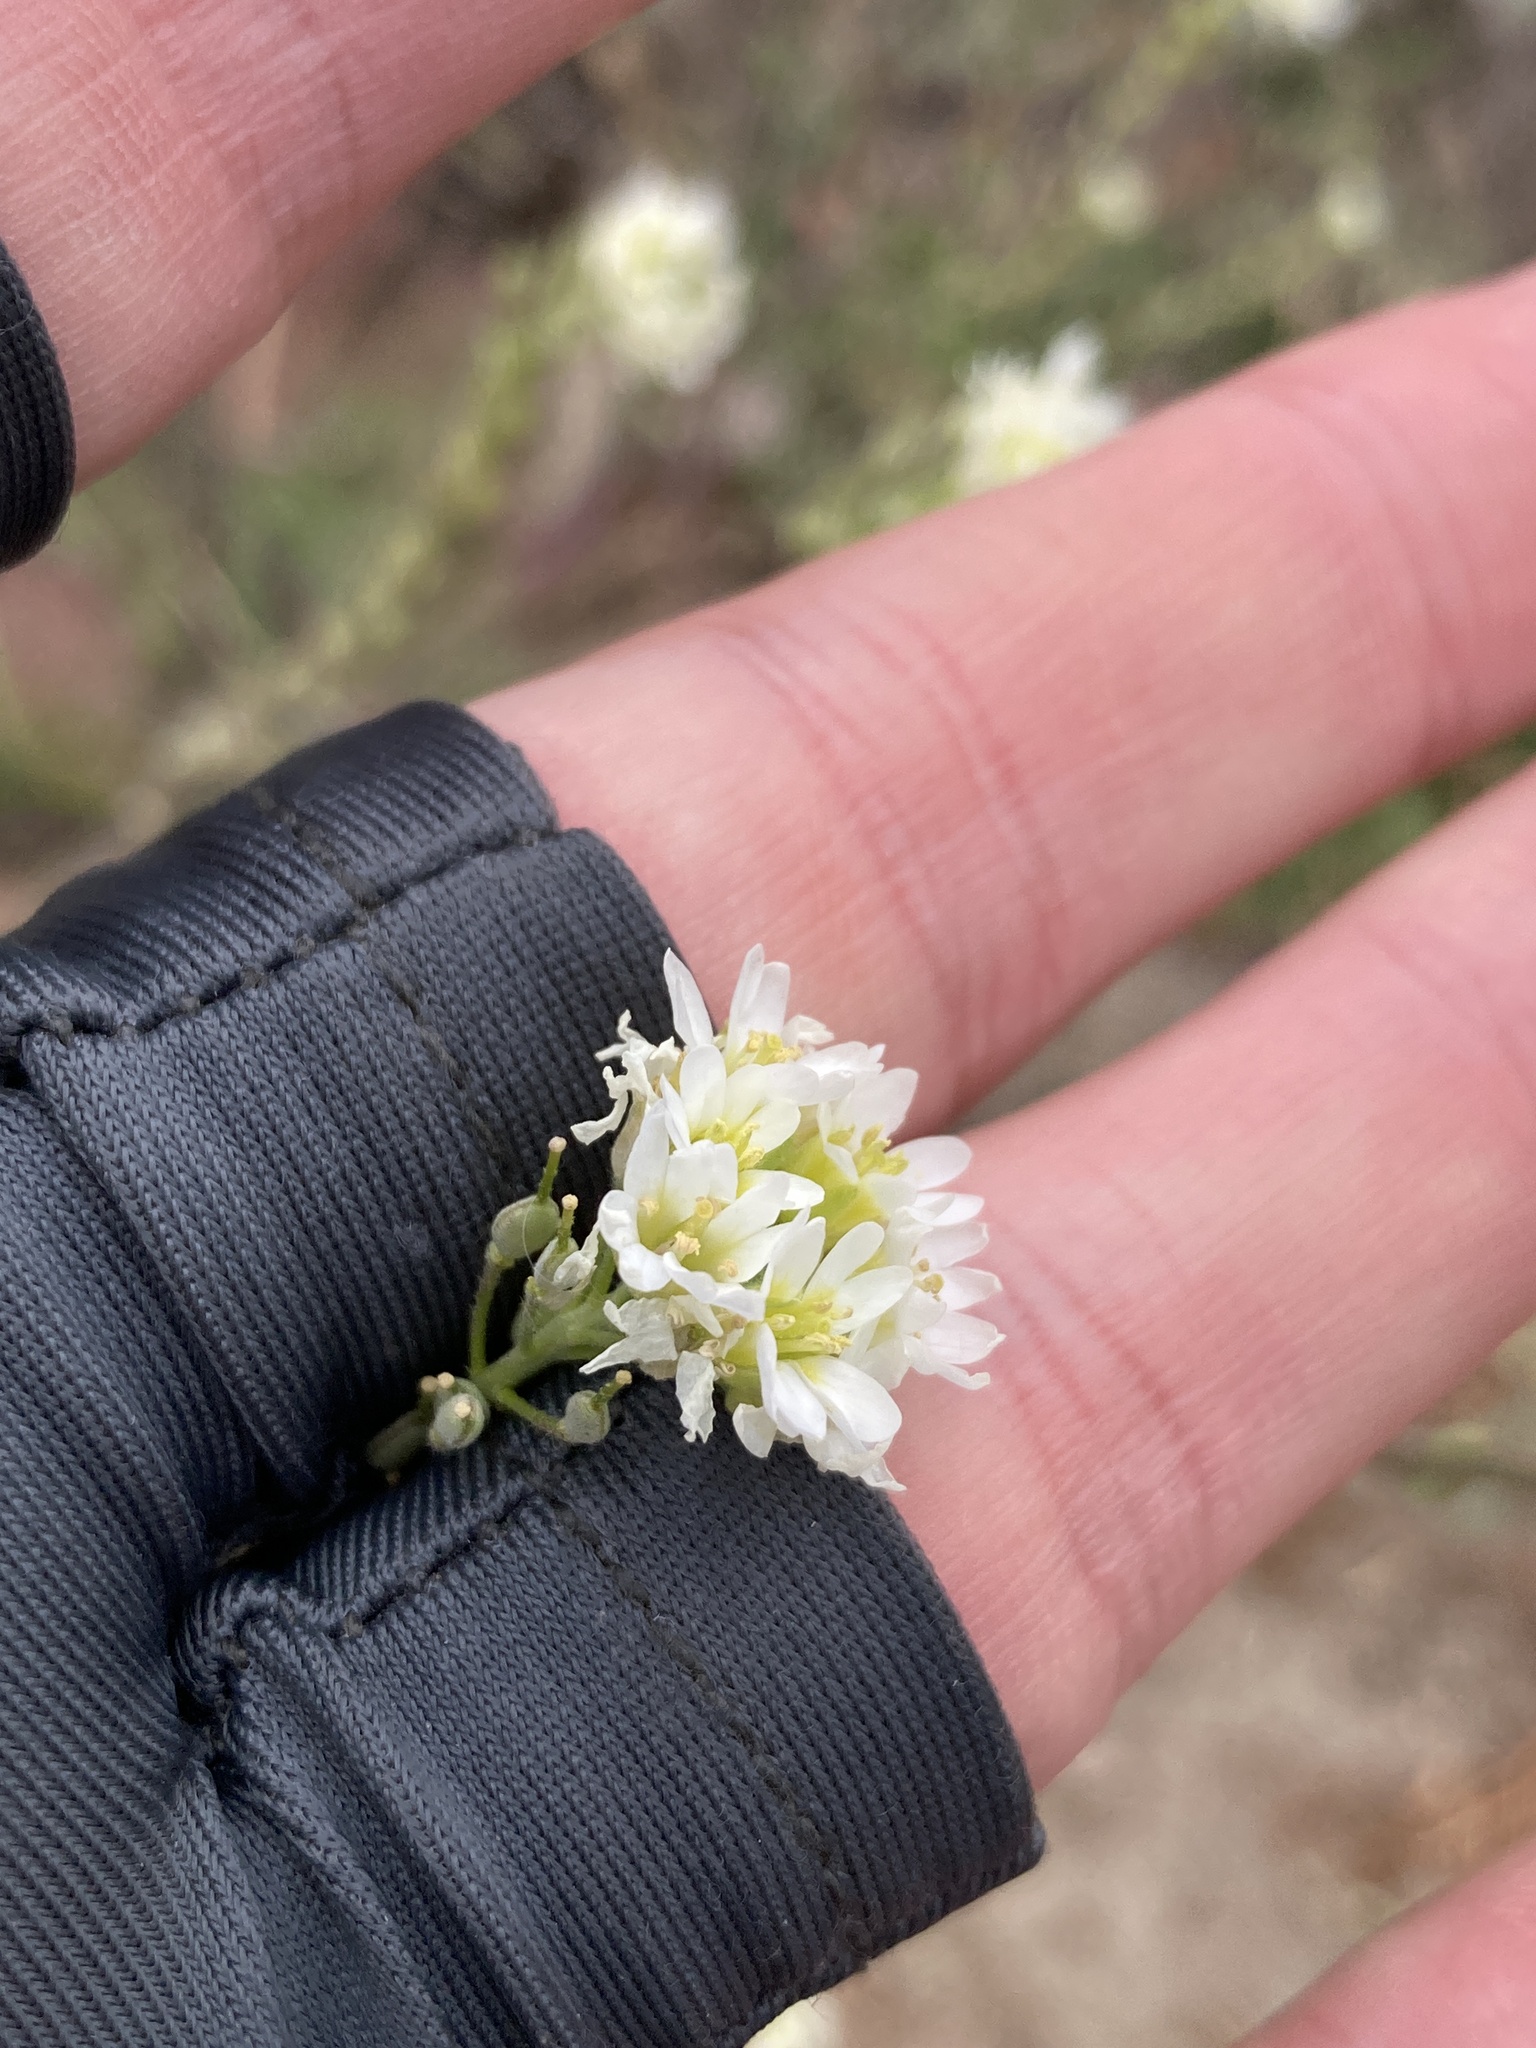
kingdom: Plantae
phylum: Tracheophyta
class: Magnoliopsida
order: Brassicales
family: Brassicaceae
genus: Berteroa
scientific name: Berteroa incana
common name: Hoary alison
